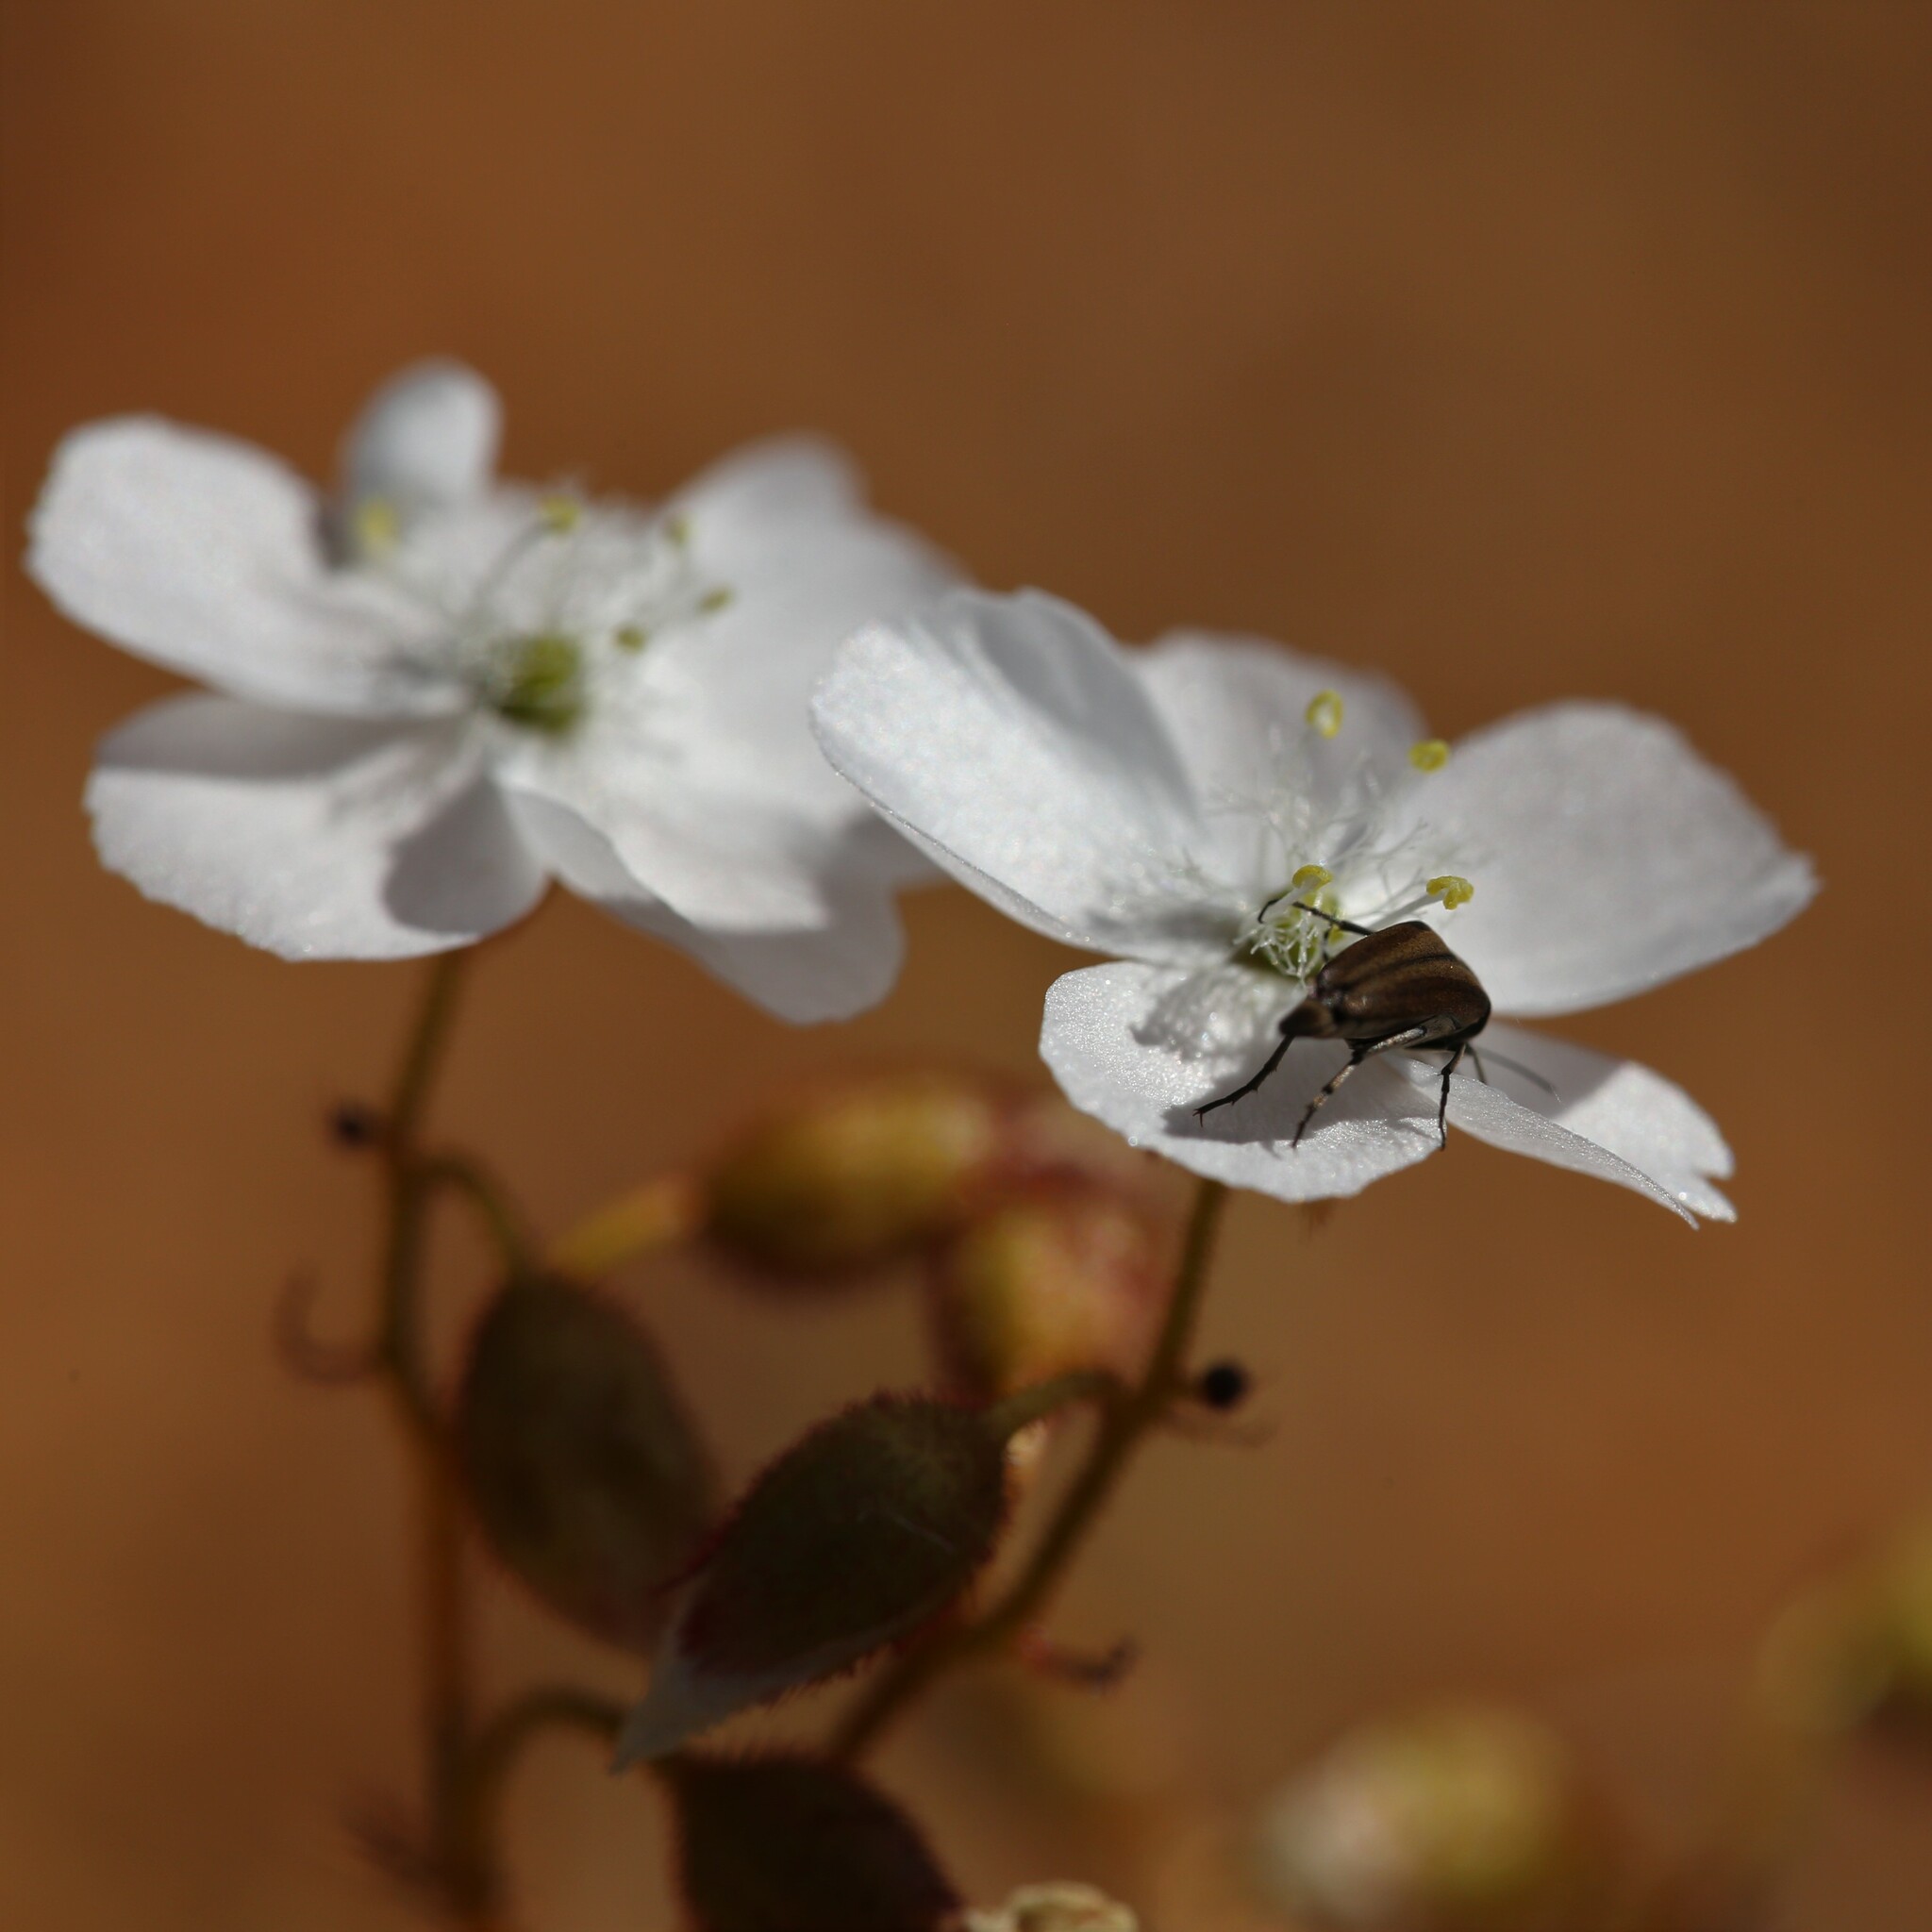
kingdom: Plantae
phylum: Tracheophyta
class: Magnoliopsida
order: Caryophyllales
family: Droseraceae
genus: Drosera
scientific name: Drosera andersoniana
